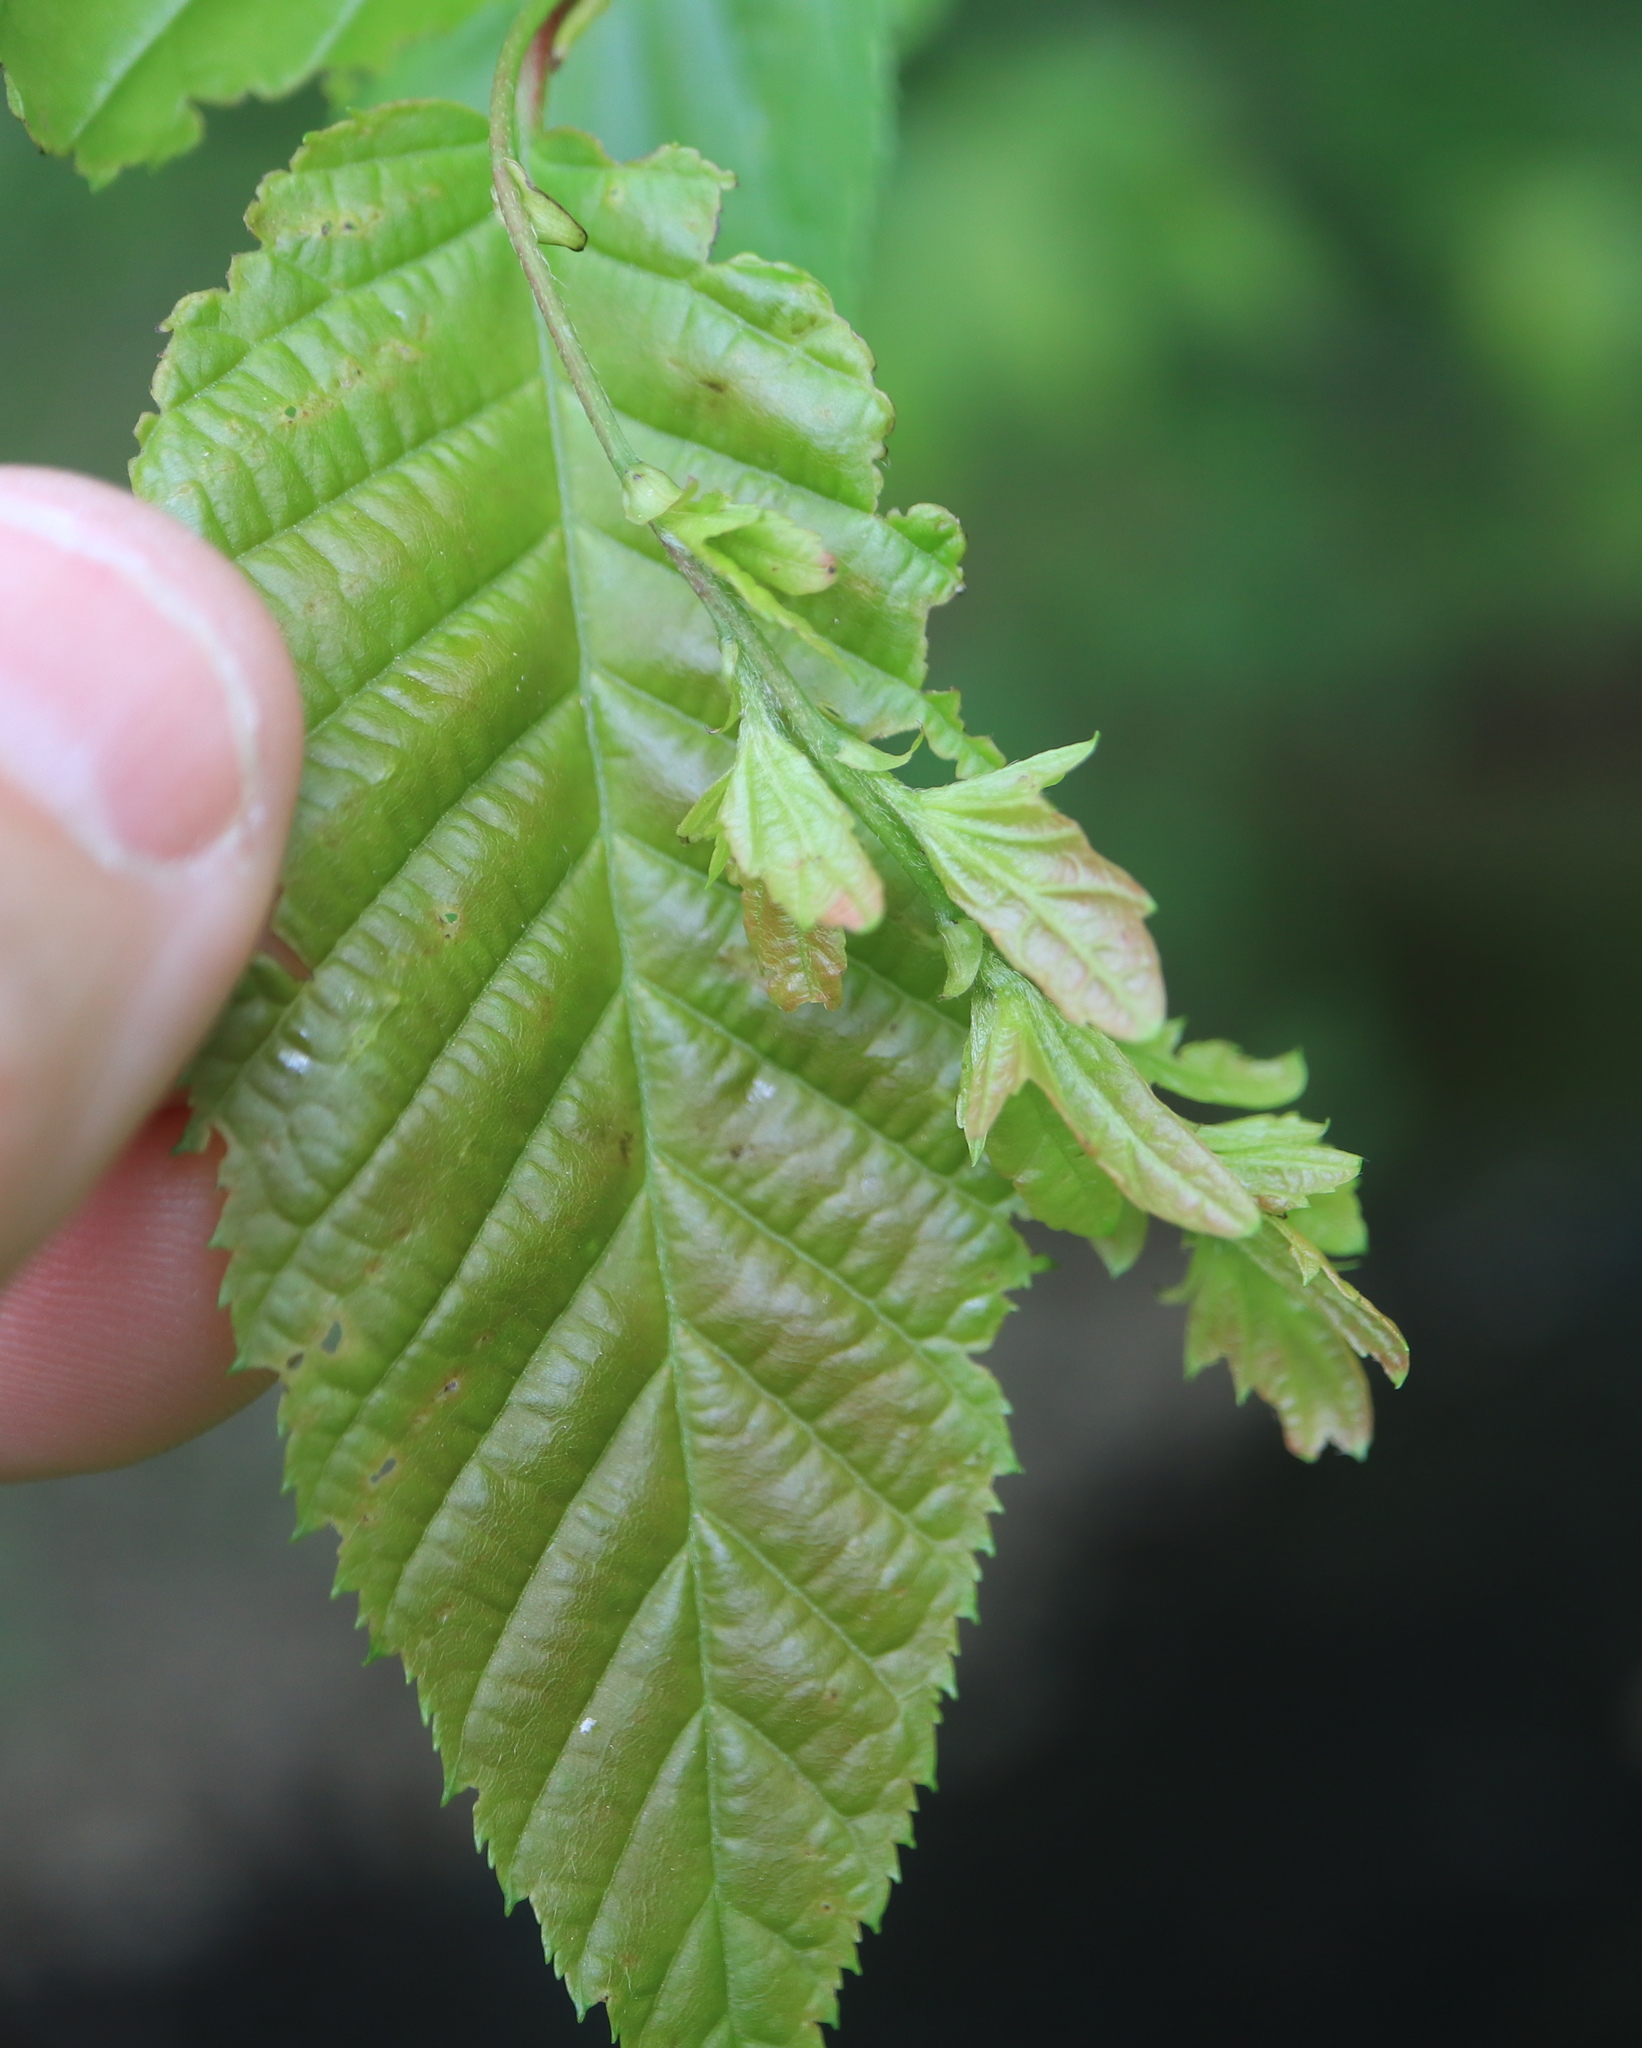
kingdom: Plantae
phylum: Tracheophyta
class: Magnoliopsida
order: Fagales
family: Betulaceae
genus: Carpinus
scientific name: Carpinus caroliniana
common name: American hornbeam
